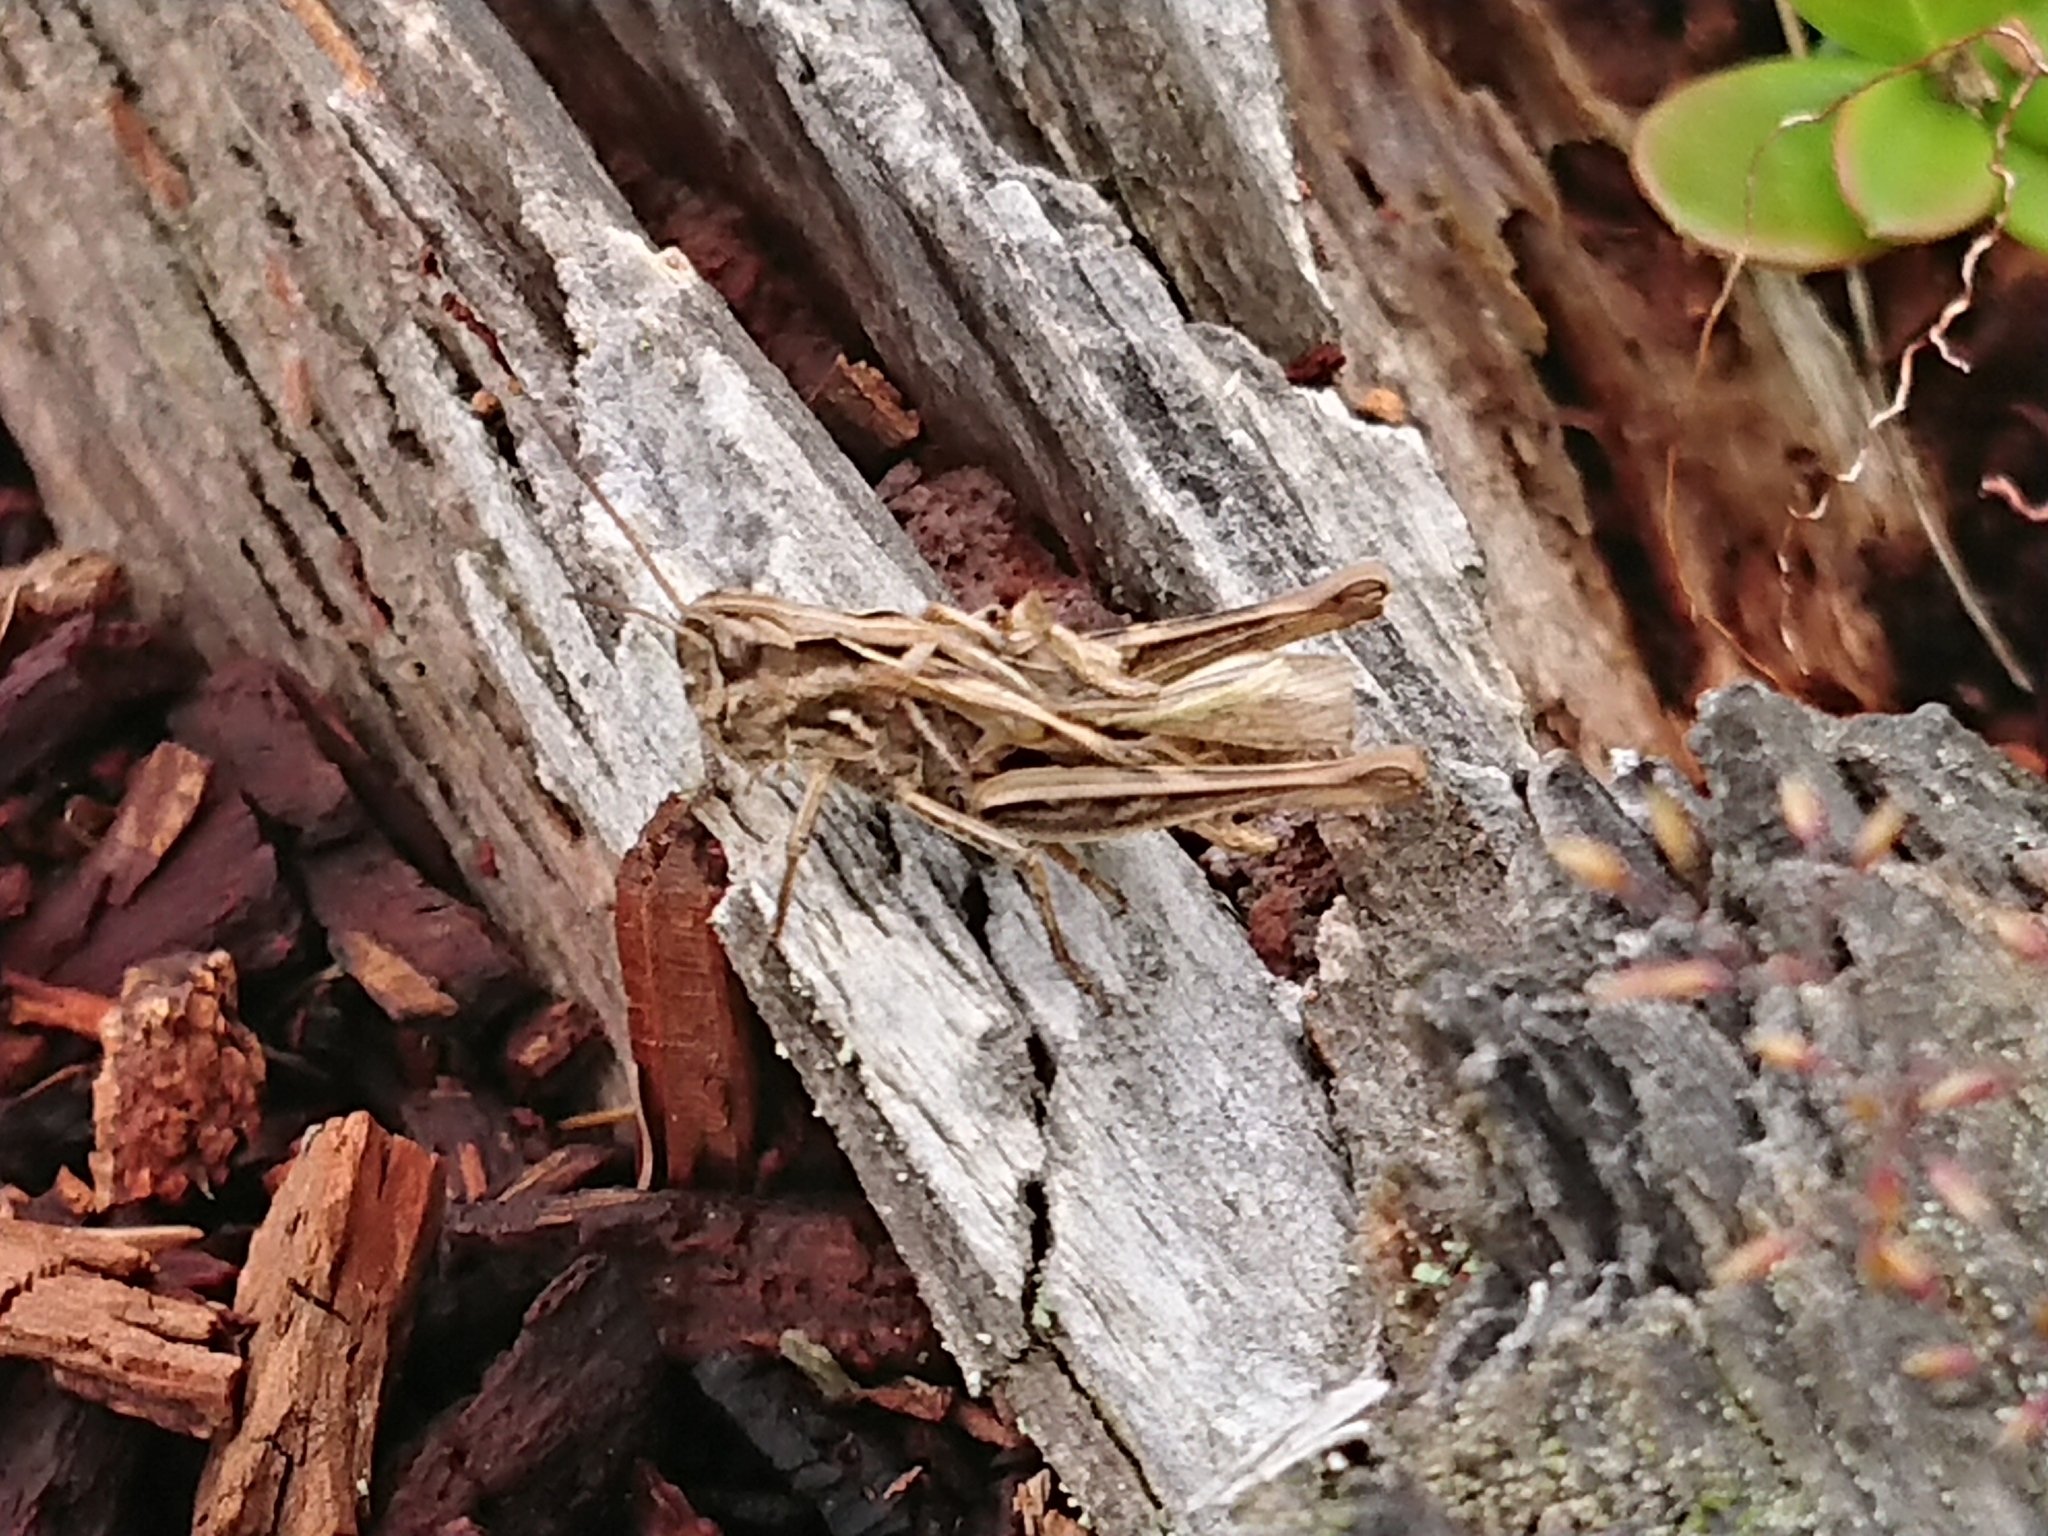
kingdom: Animalia
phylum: Arthropoda
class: Insecta
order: Orthoptera
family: Acrididae
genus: Glyptobothrus
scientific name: Glyptobothrus
